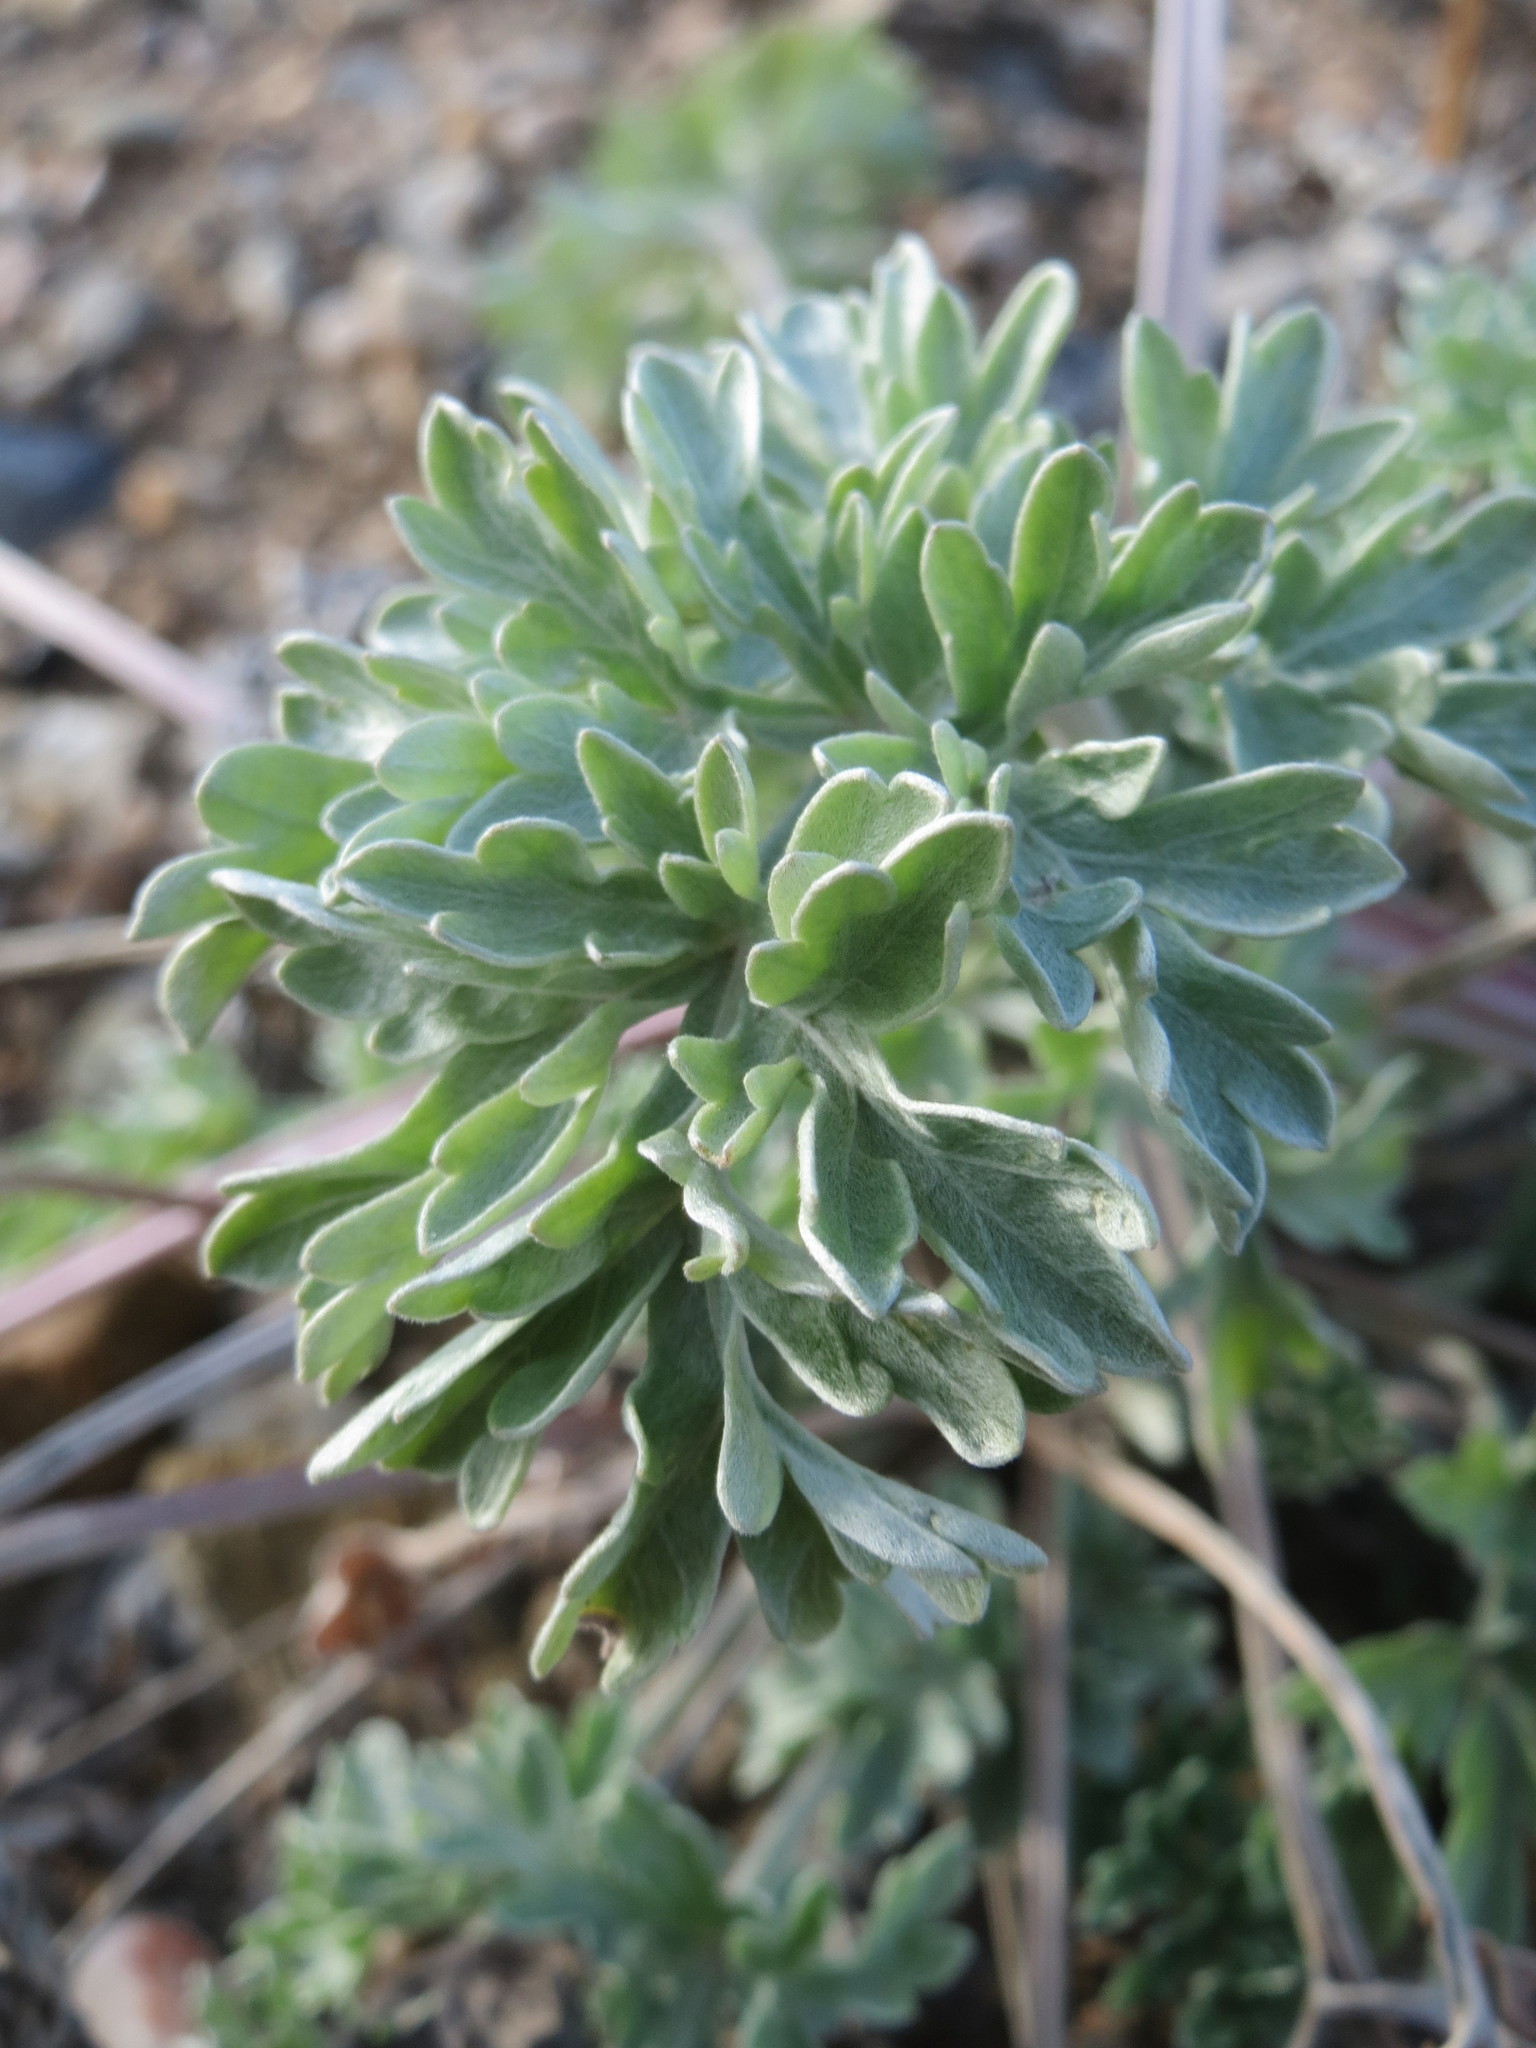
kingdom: Plantae
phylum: Tracheophyta
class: Magnoliopsida
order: Asterales
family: Asteraceae
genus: Artemisia
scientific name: Artemisia absinthium
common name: Wormwood
